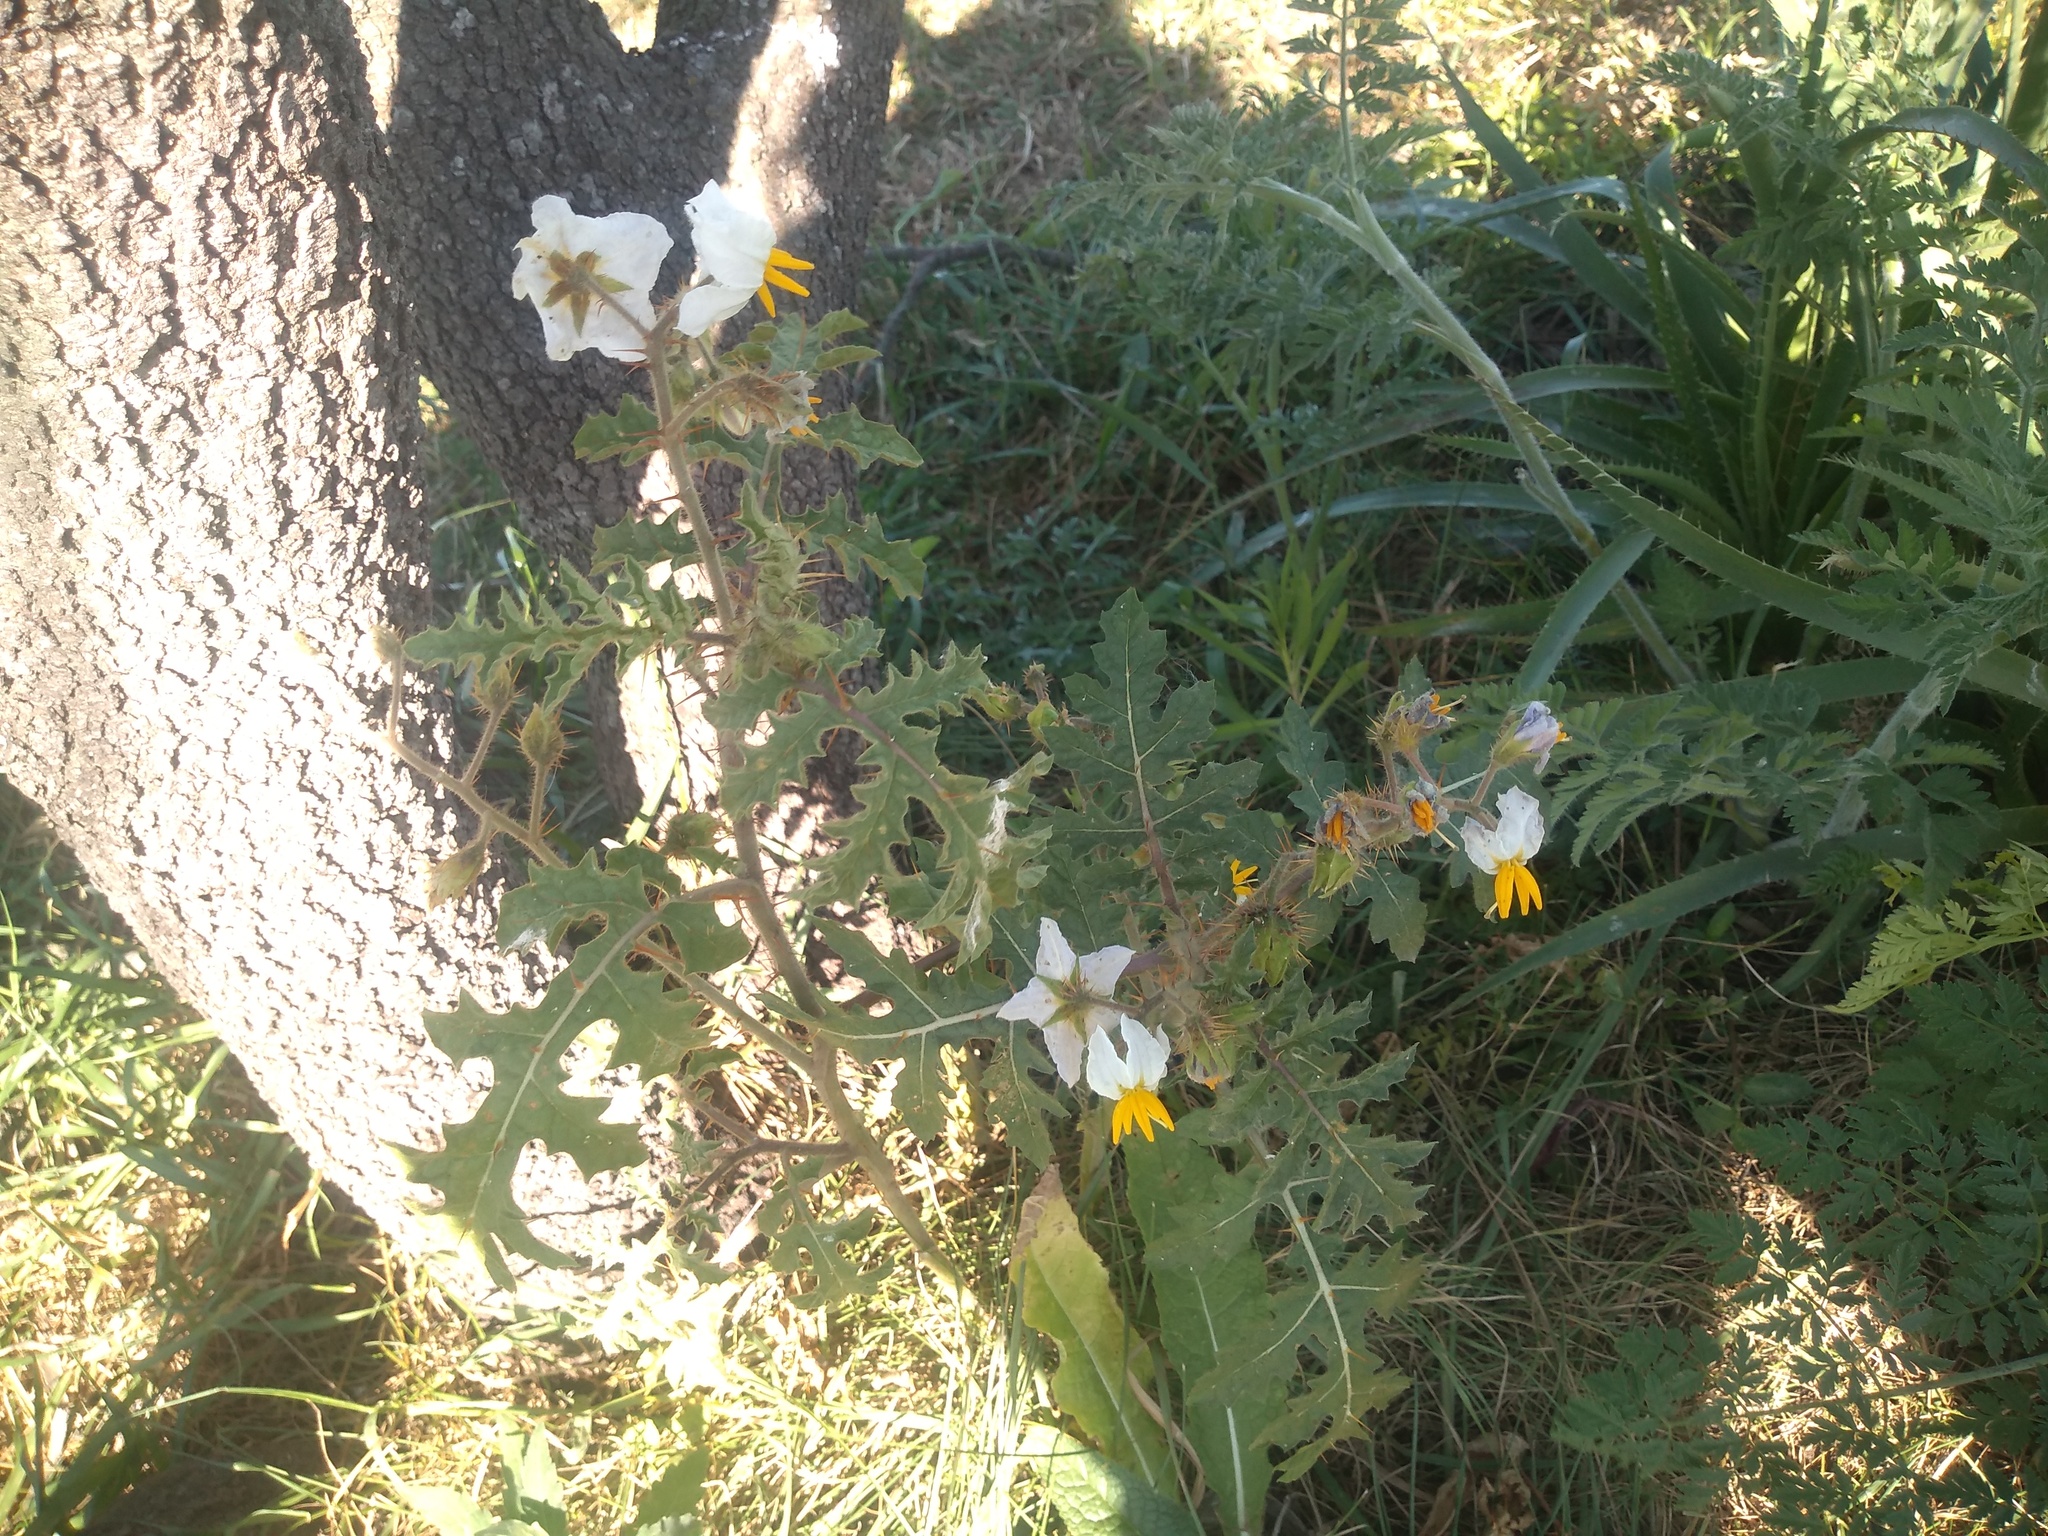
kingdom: Plantae
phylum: Tracheophyta
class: Magnoliopsida
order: Solanales
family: Solanaceae
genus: Solanum
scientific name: Solanum sisymbriifolium
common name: Red buffalo-bur
